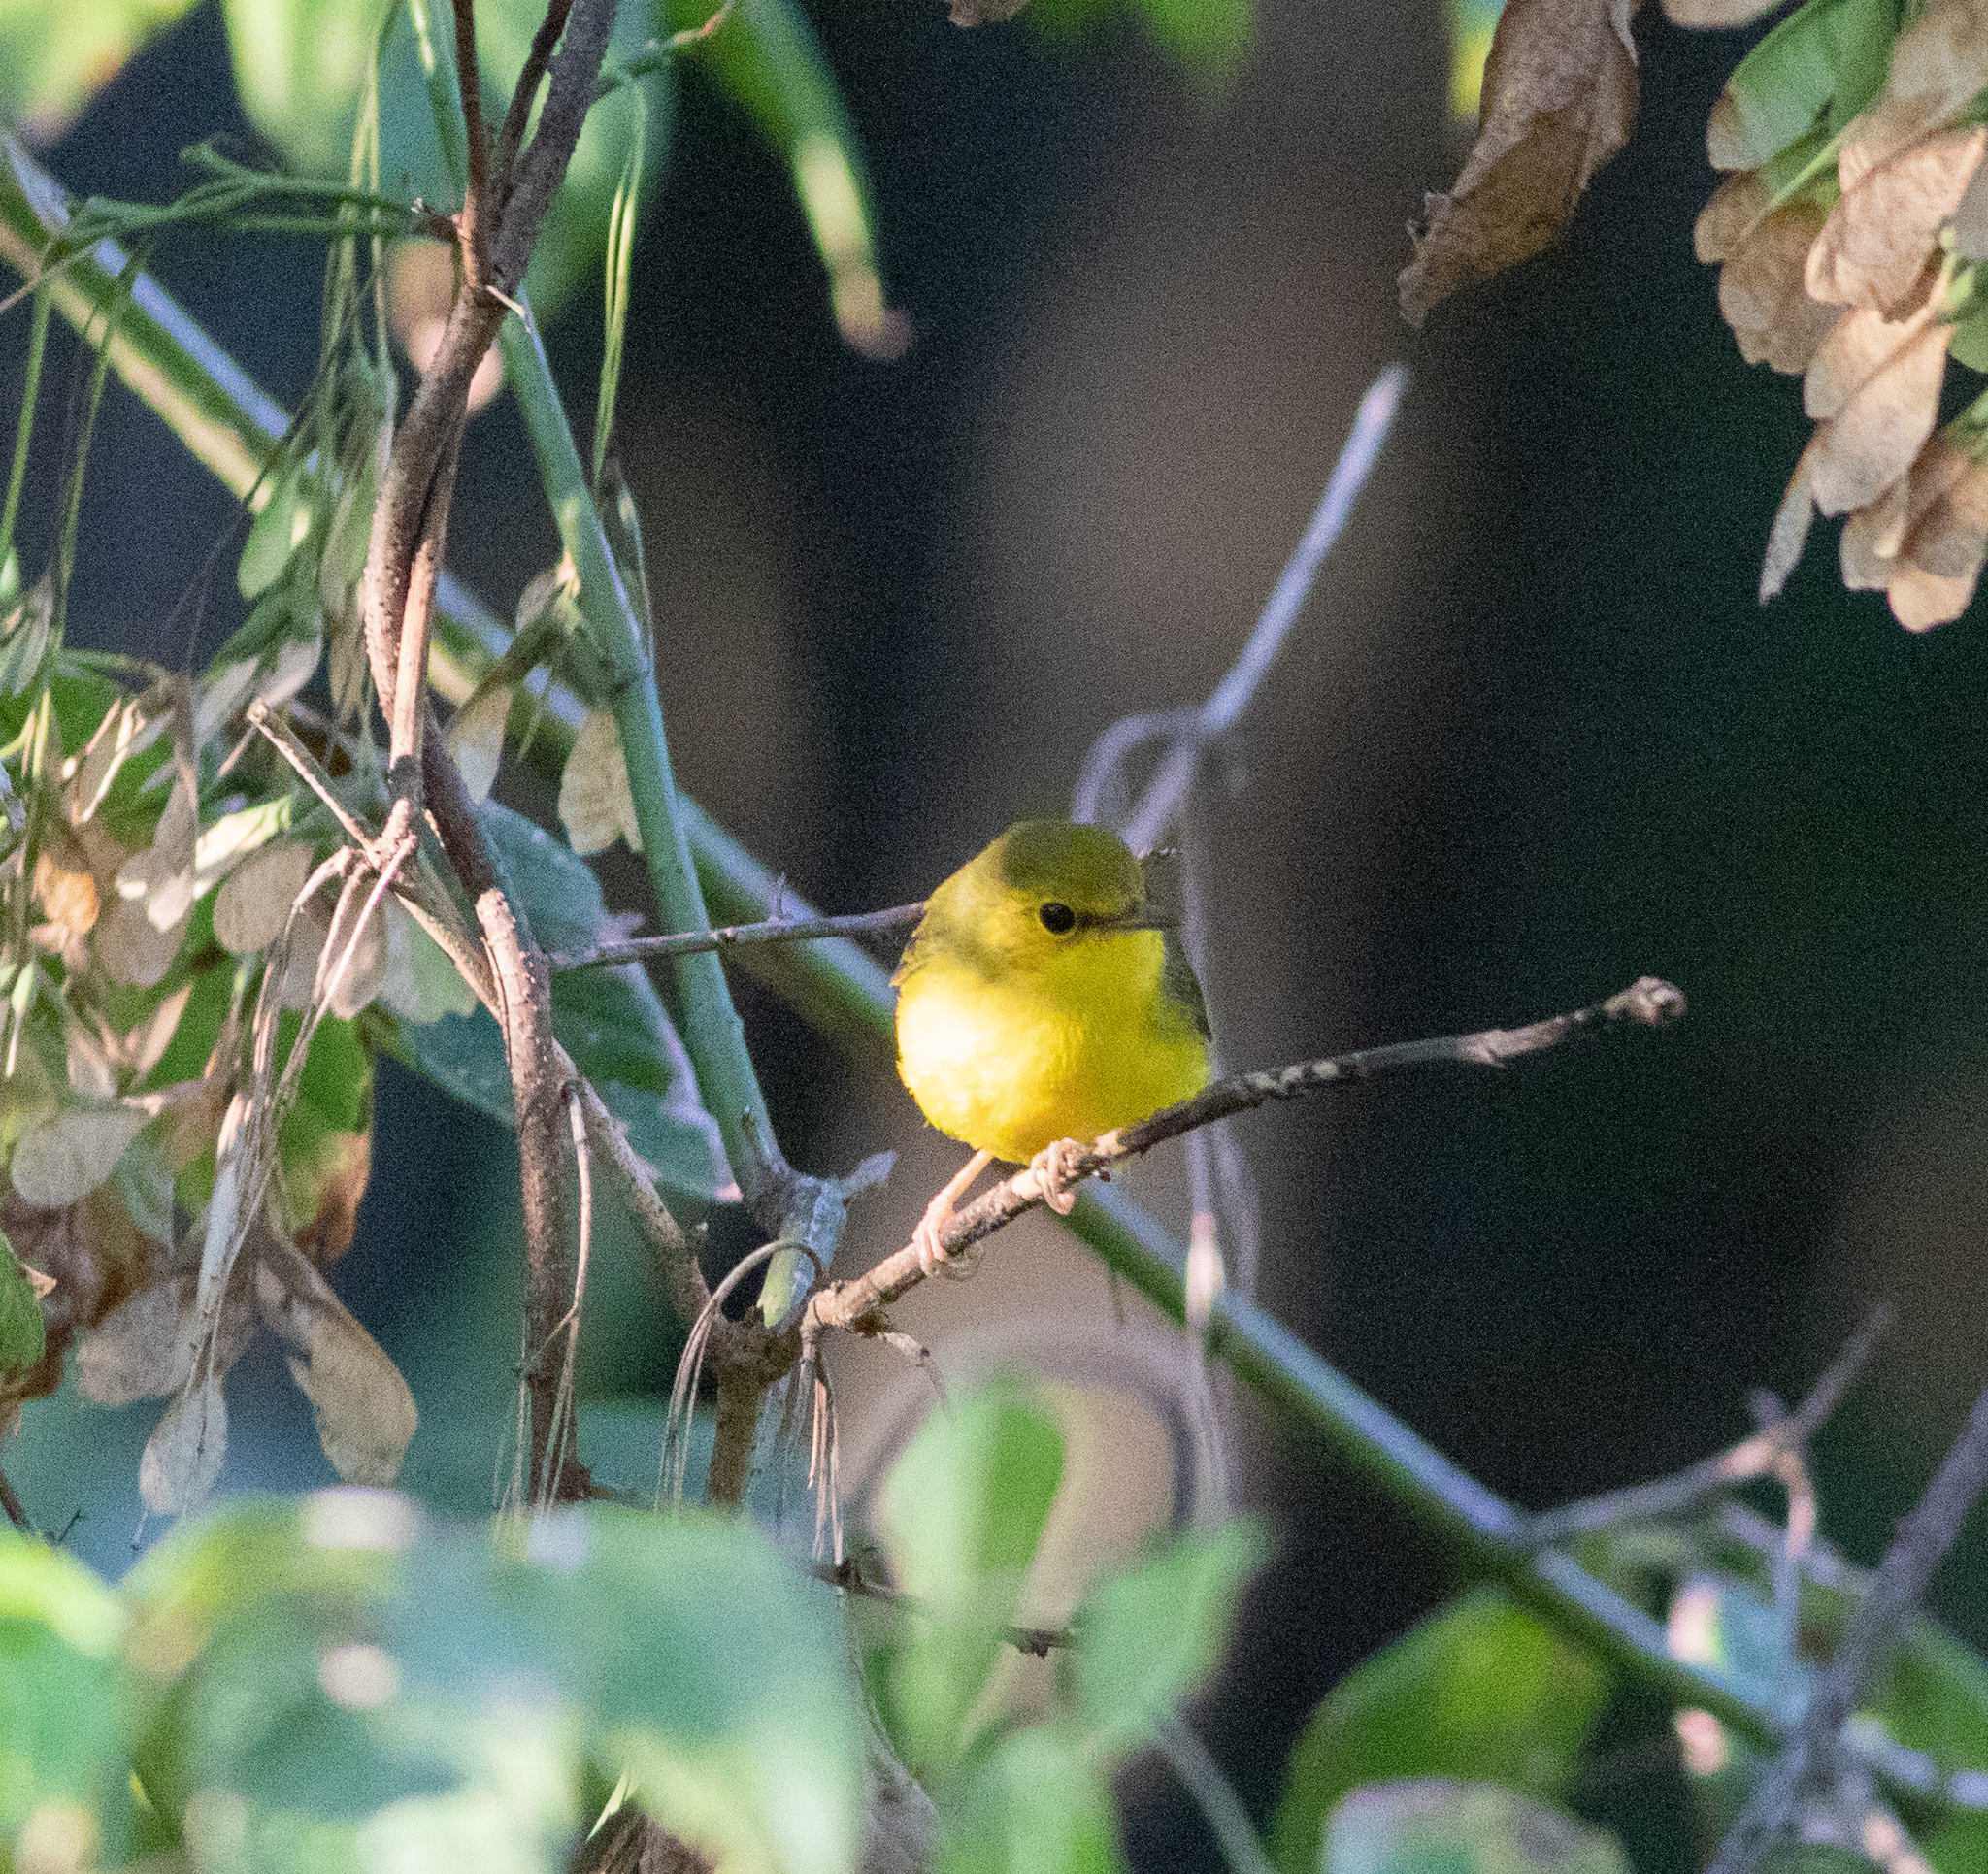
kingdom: Animalia
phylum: Chordata
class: Aves
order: Passeriformes
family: Parulidae
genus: Setophaga
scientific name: Setophaga citrina
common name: Hooded warbler
